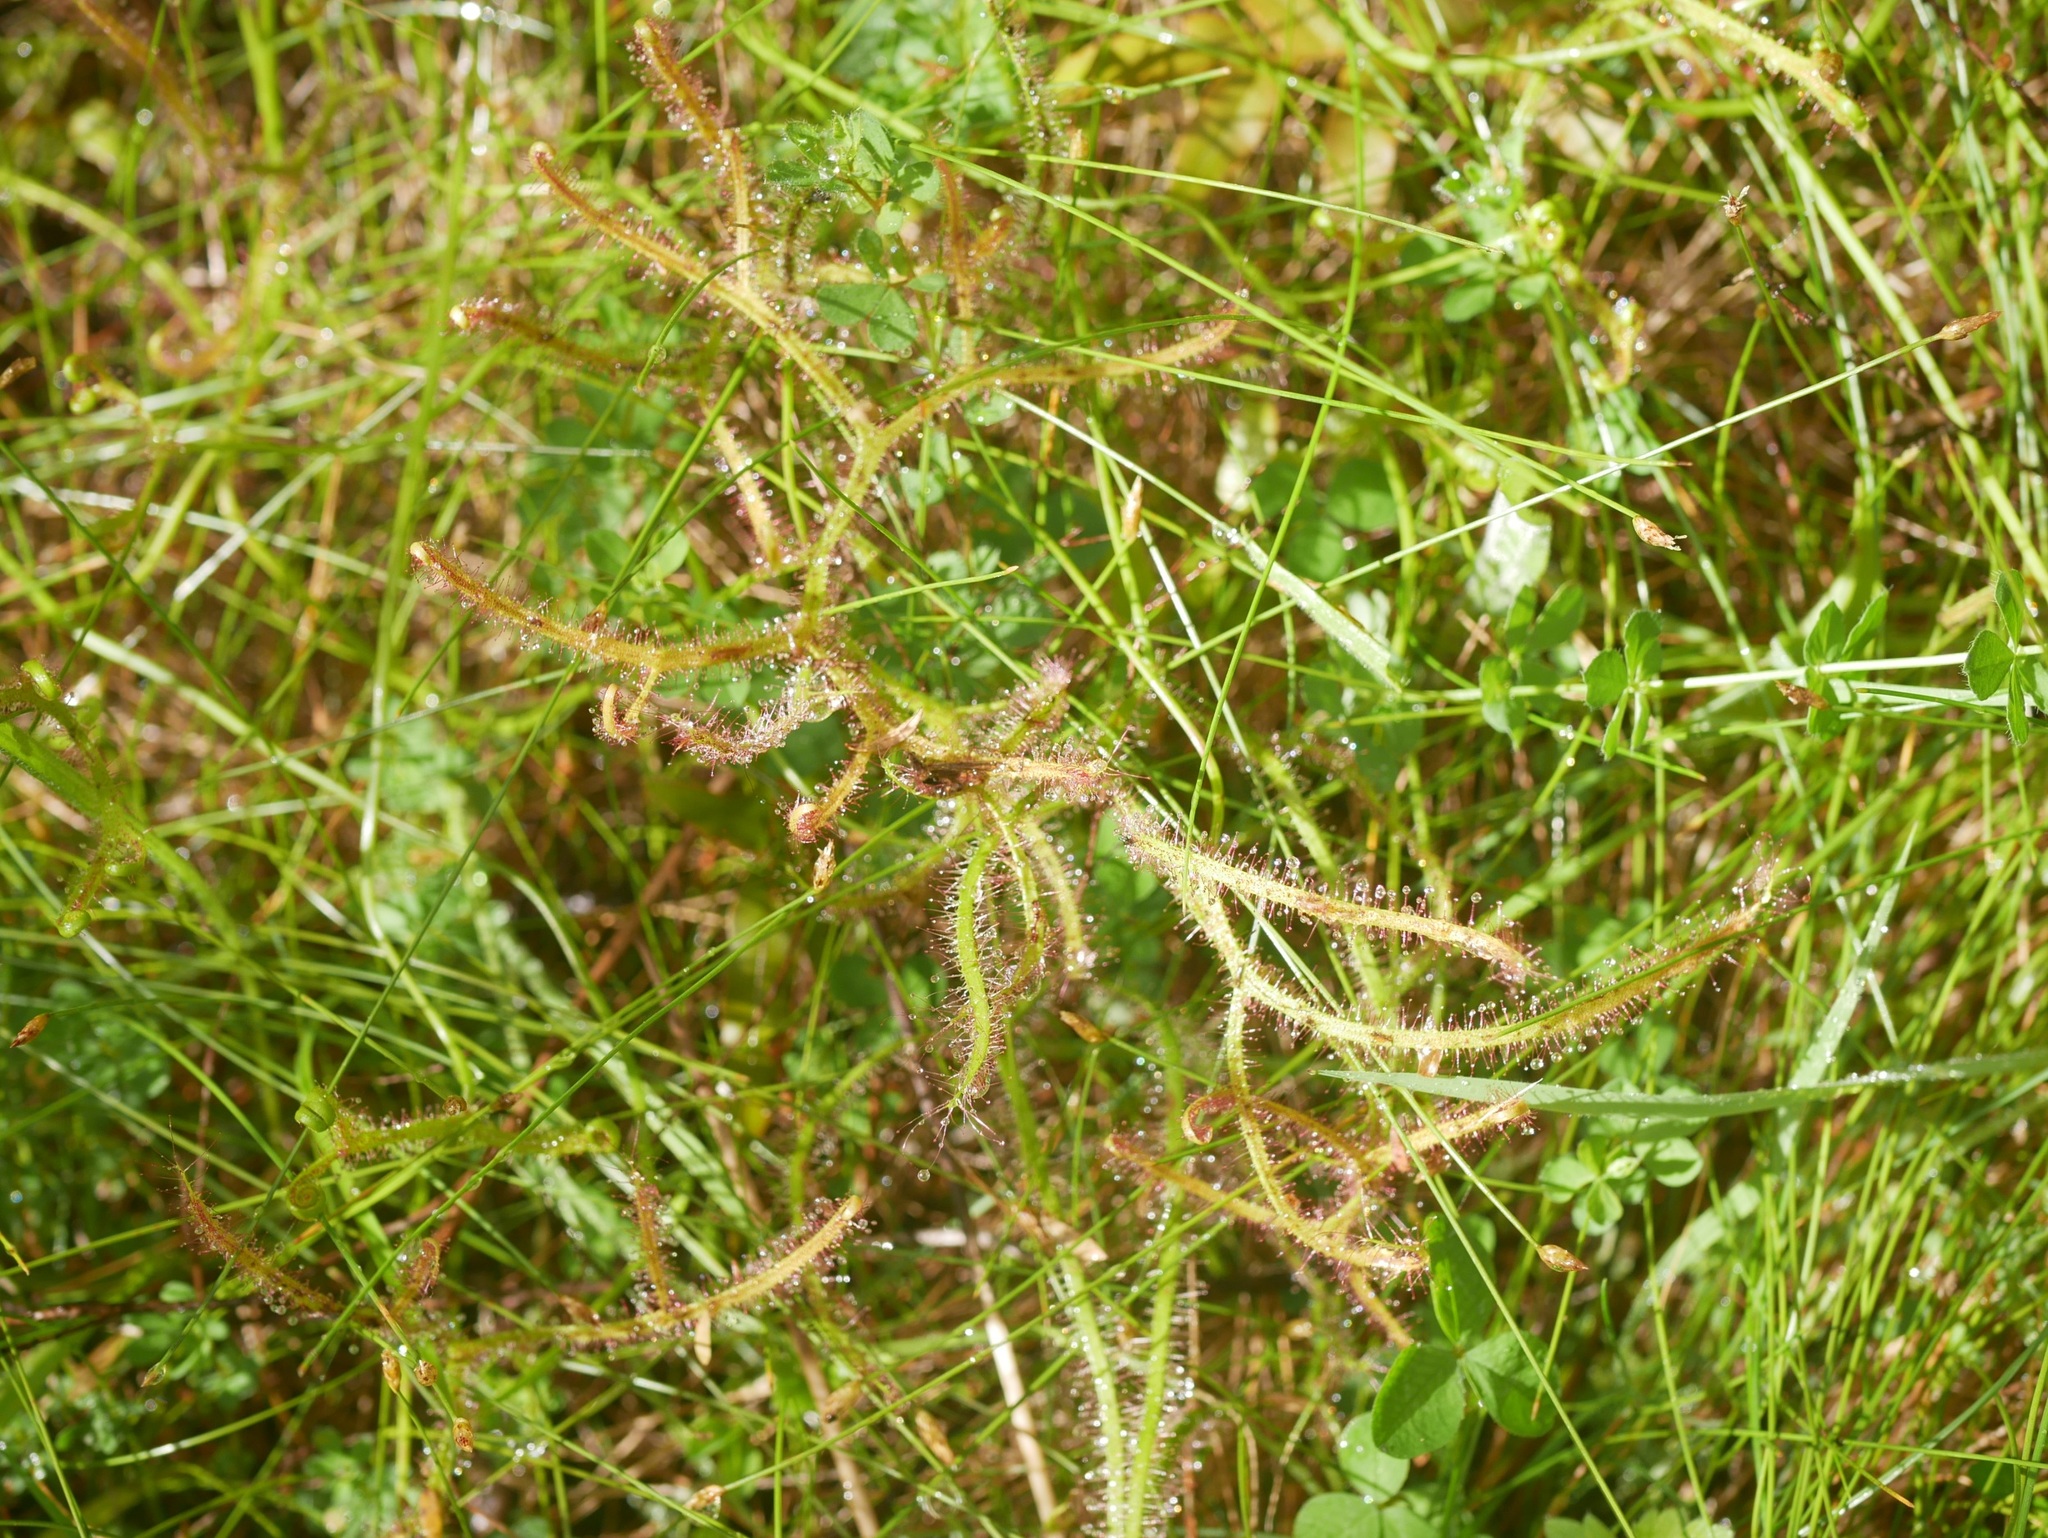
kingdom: Plantae
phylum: Tracheophyta
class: Magnoliopsida
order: Caryophyllales
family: Droseraceae
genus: Drosera
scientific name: Drosera binata
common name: Forked sundew
